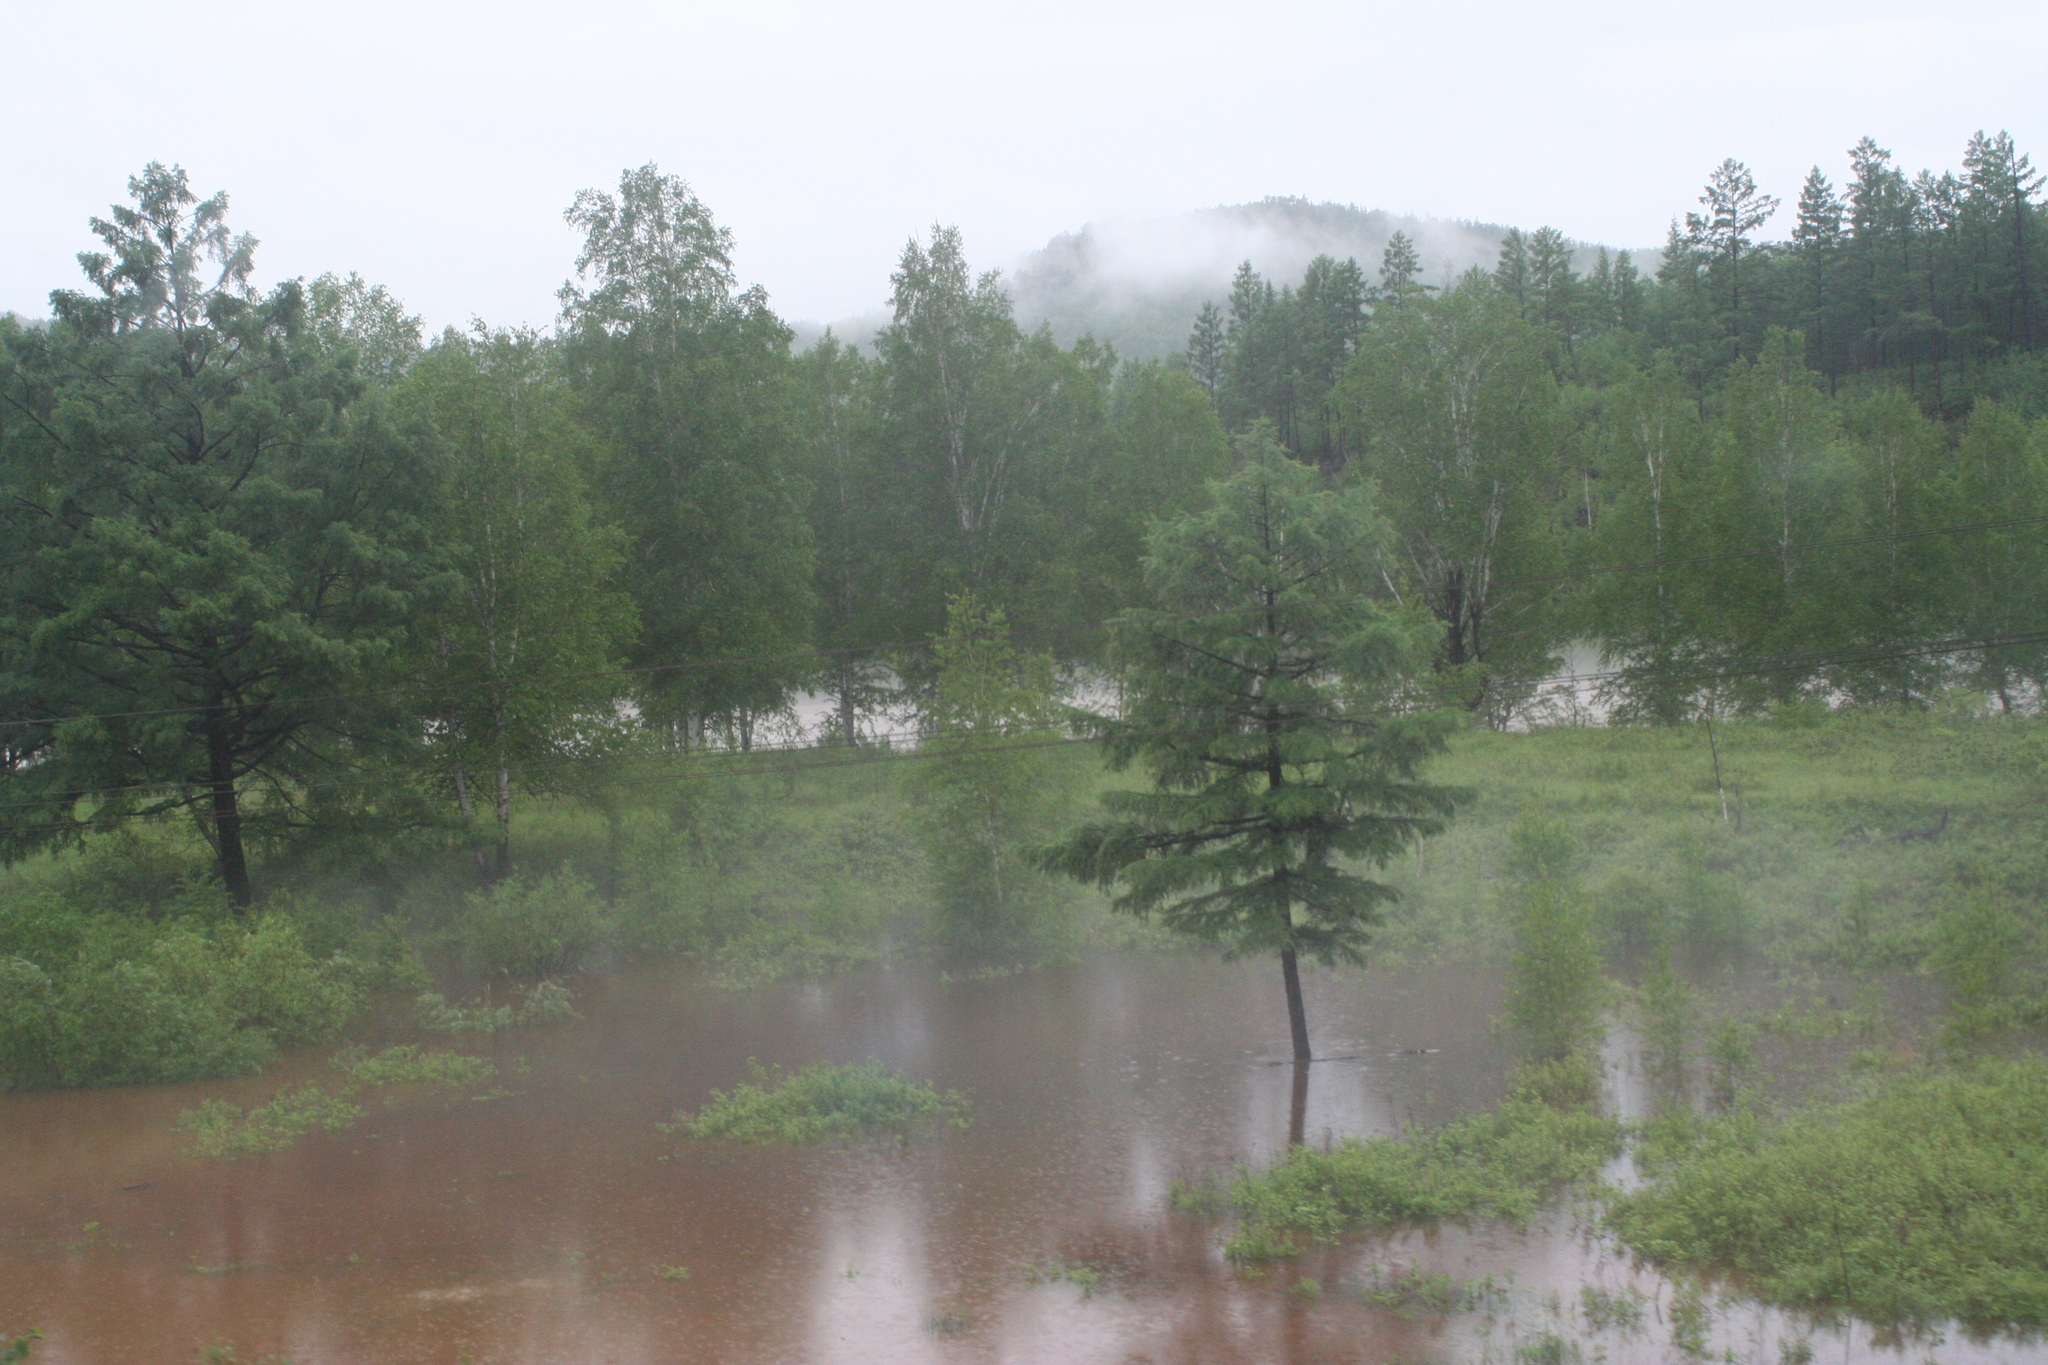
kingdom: Plantae
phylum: Tracheophyta
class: Pinopsida
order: Pinales
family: Pinaceae
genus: Larix
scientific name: Larix gmelinii
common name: Dahurian larch
